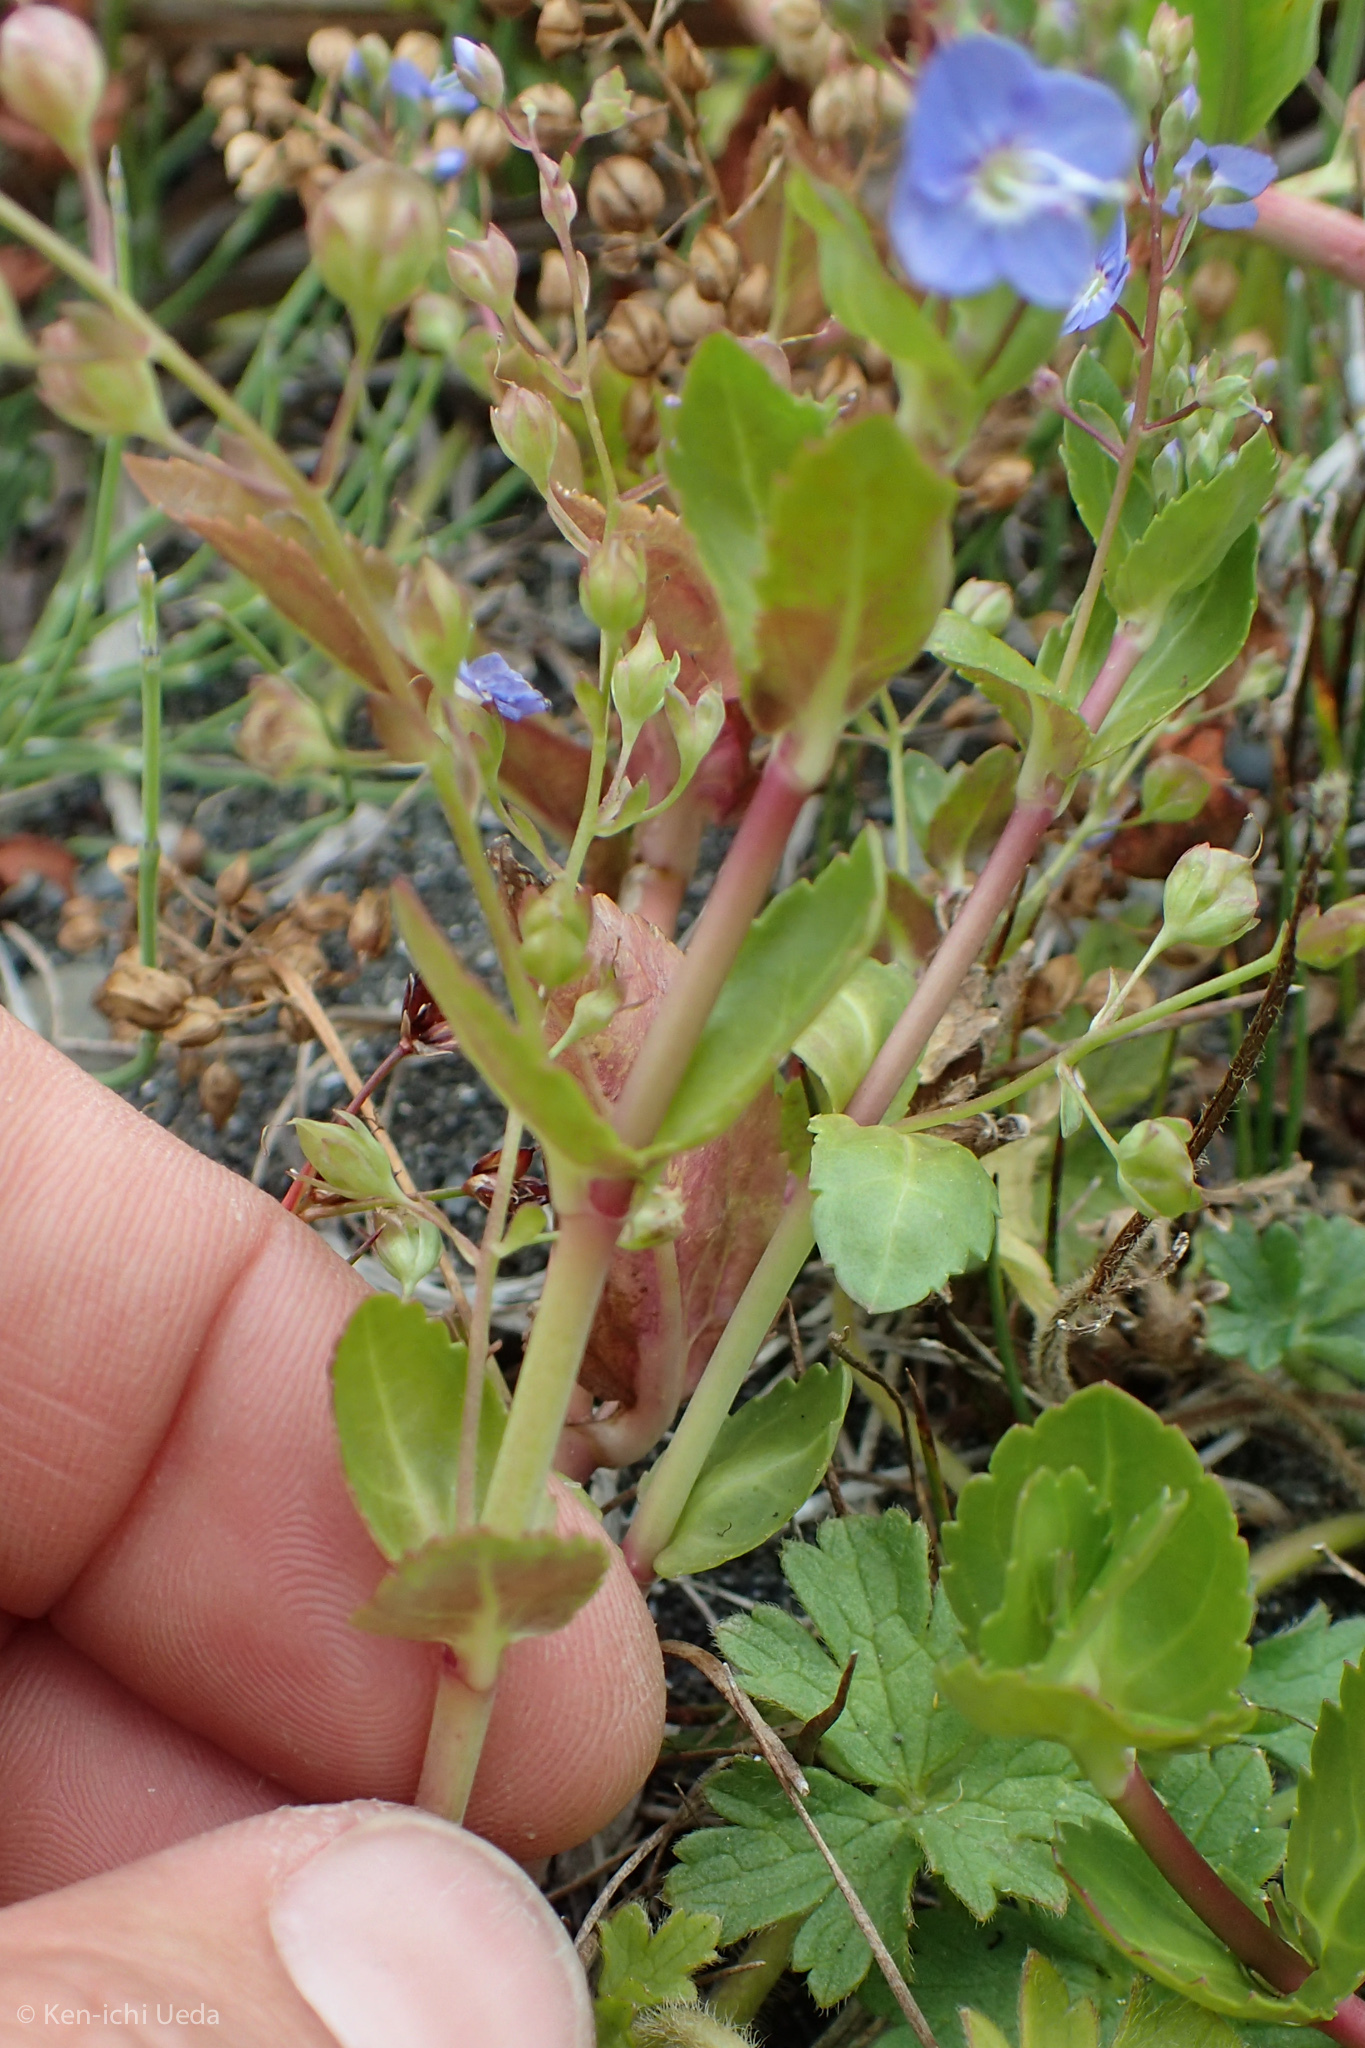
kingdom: Plantae
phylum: Tracheophyta
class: Magnoliopsida
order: Lamiales
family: Plantaginaceae
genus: Veronica
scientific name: Veronica americana
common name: American brooklime
